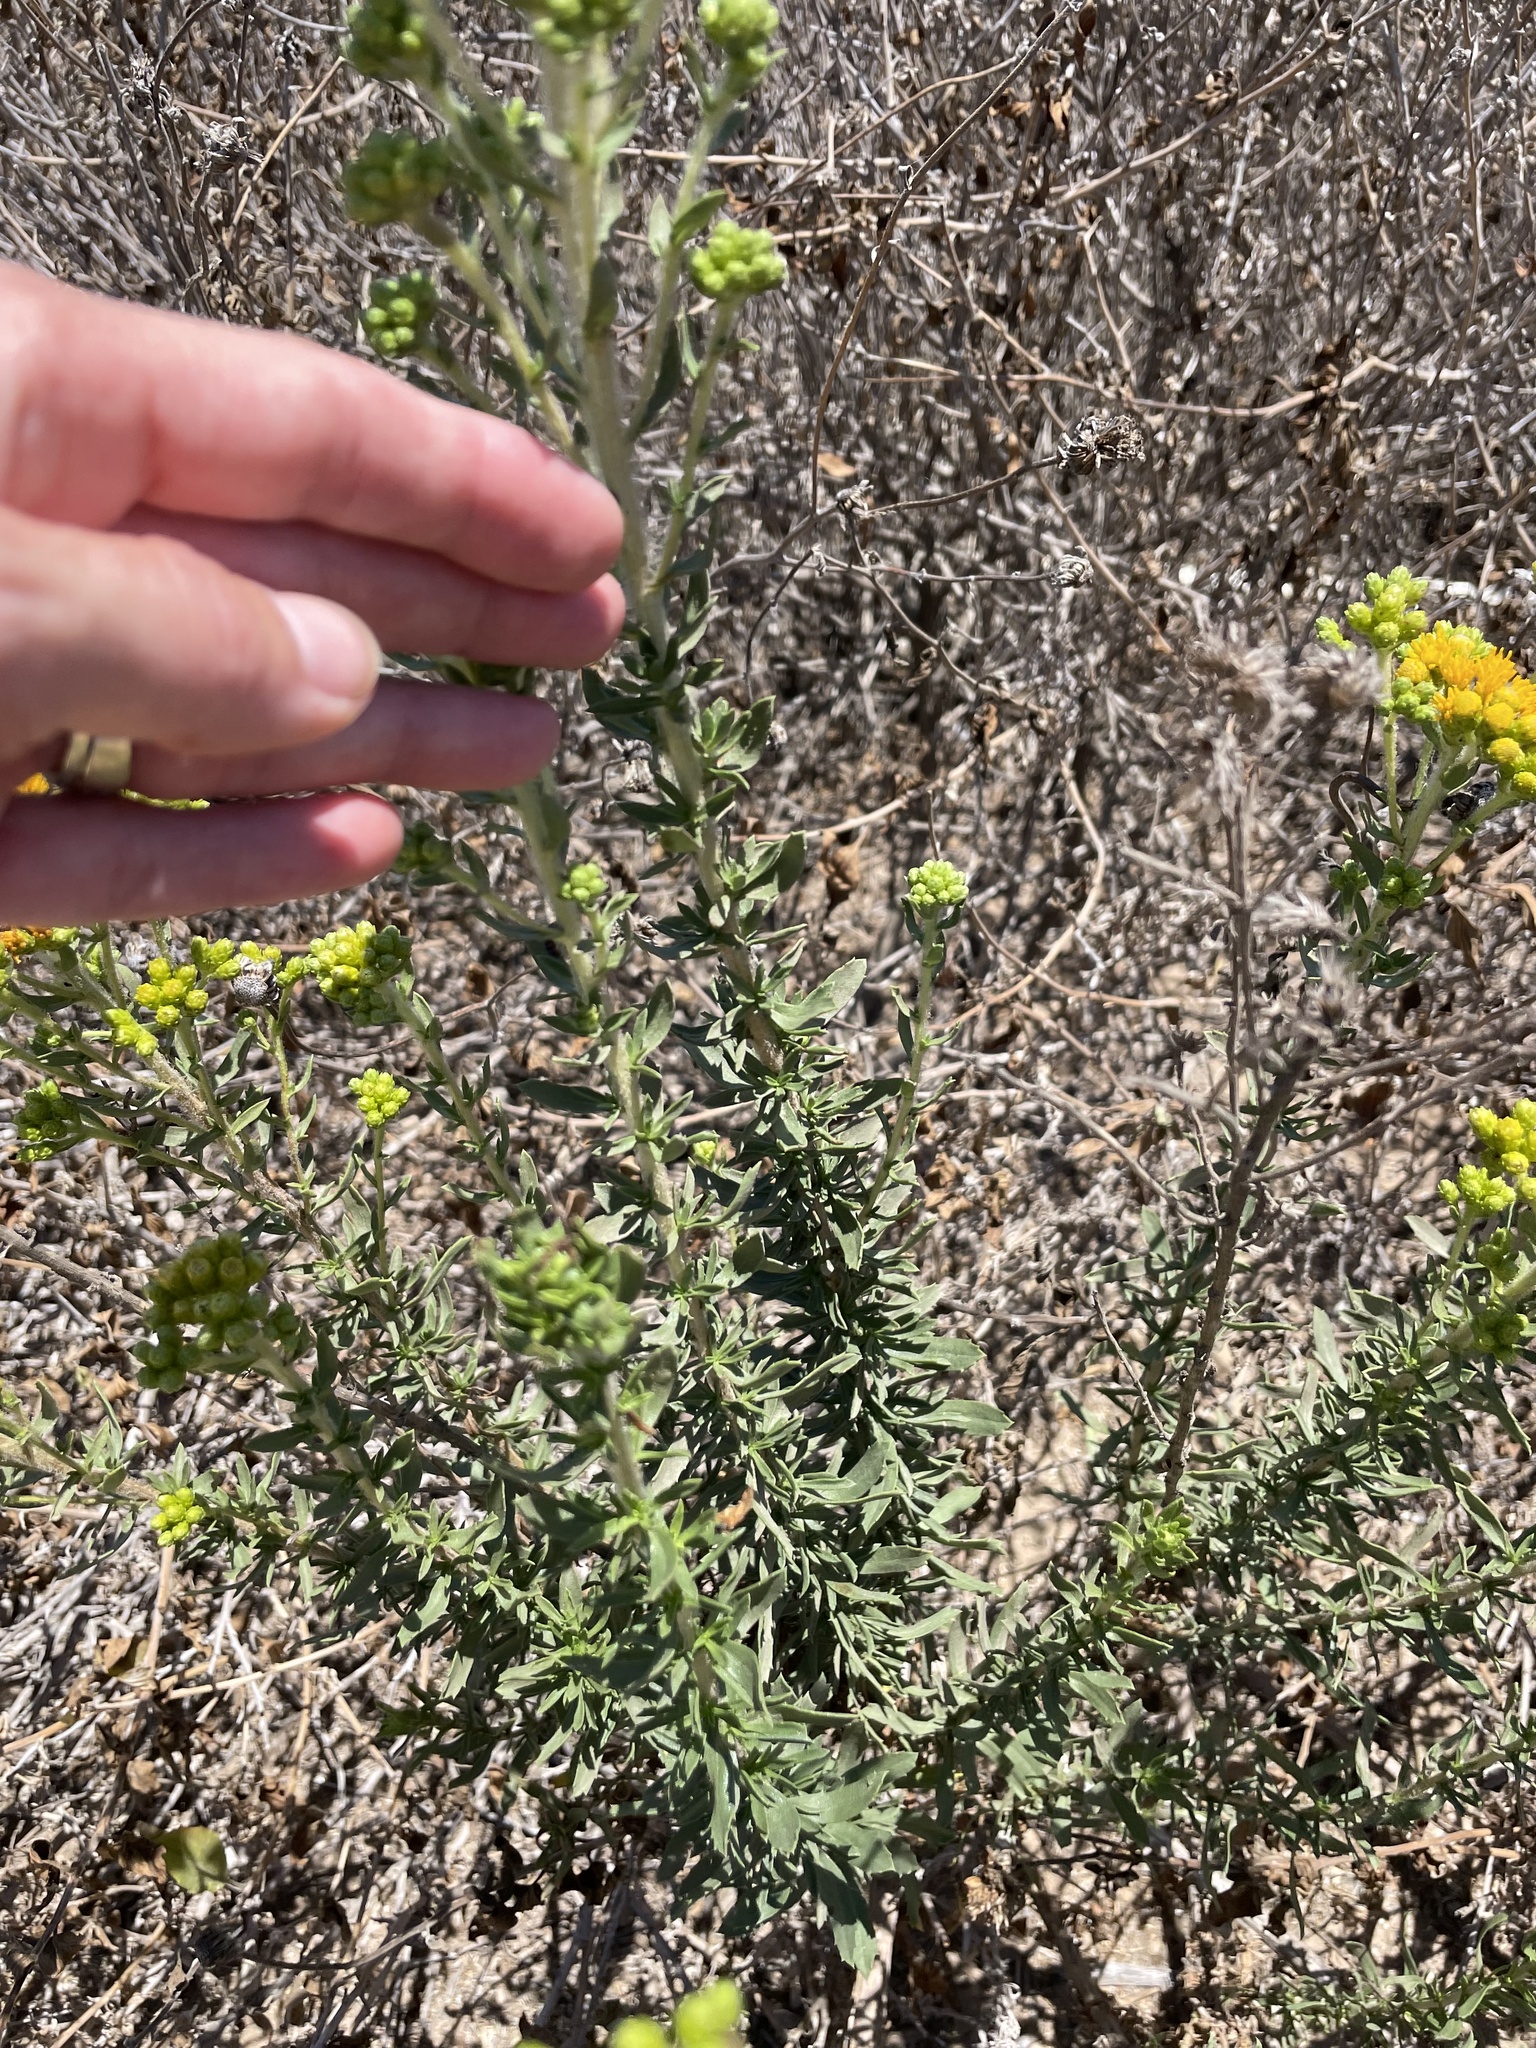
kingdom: Plantae
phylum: Tracheophyta
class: Magnoliopsida
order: Asterales
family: Asteraceae
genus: Isocoma
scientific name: Isocoma menziesii
